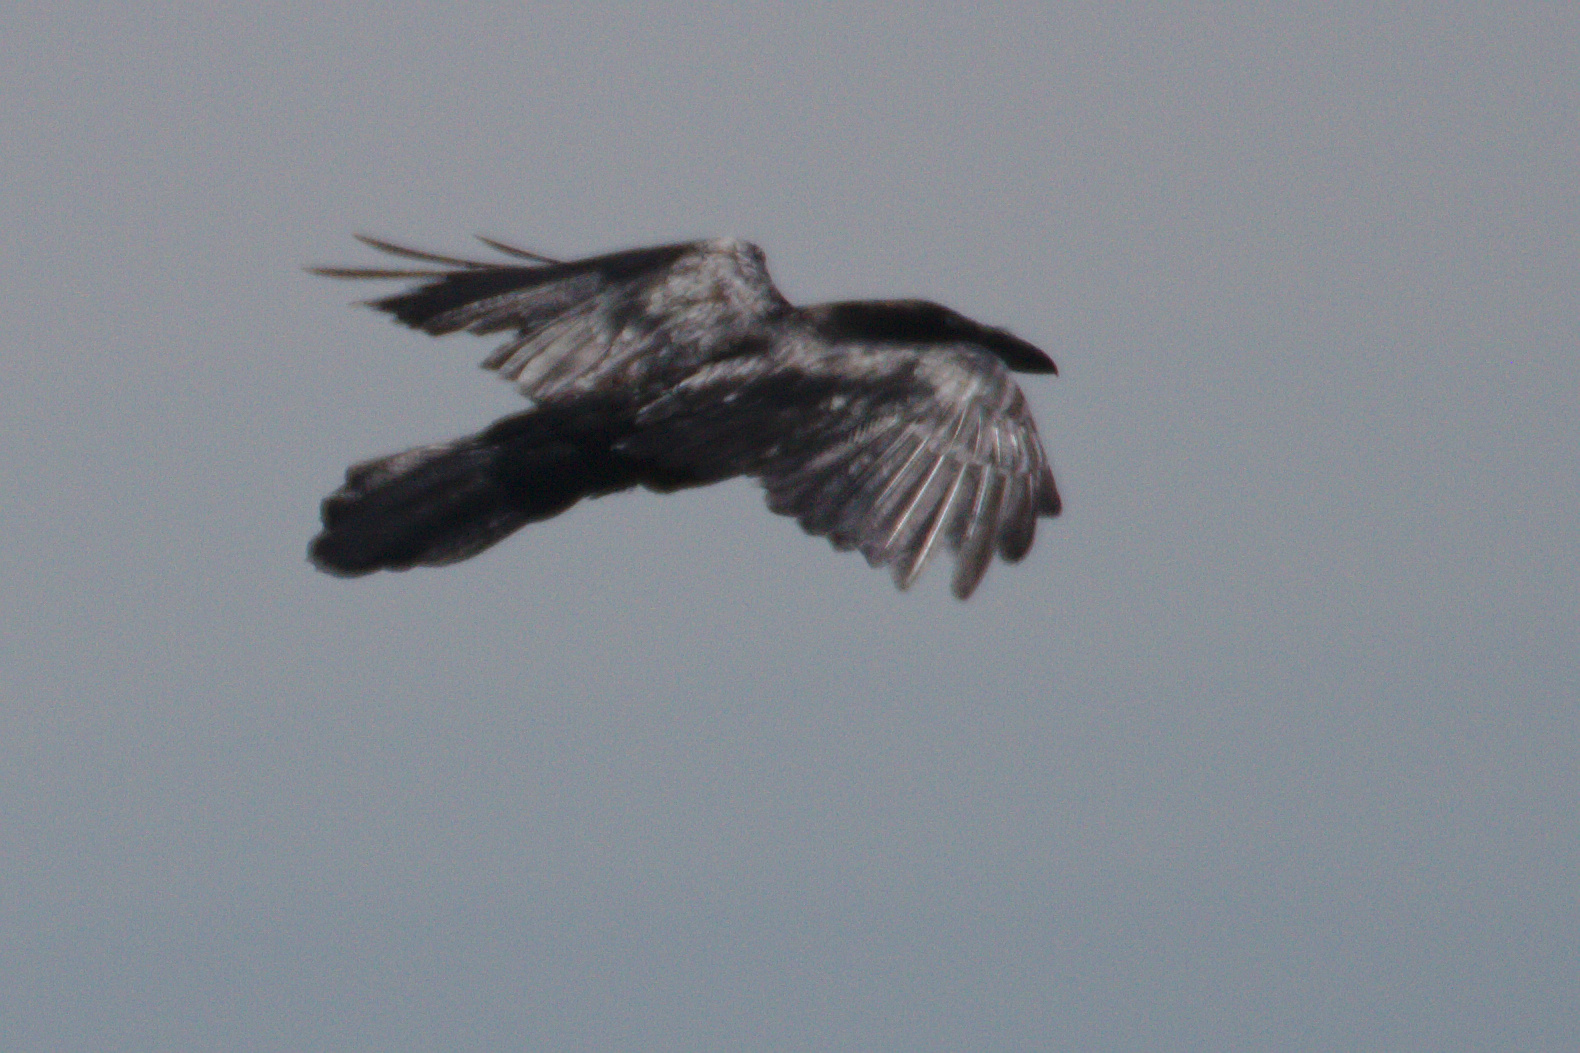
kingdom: Animalia
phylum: Chordata
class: Aves
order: Passeriformes
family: Corvidae
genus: Corvus
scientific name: Corvus corax
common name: Common raven
